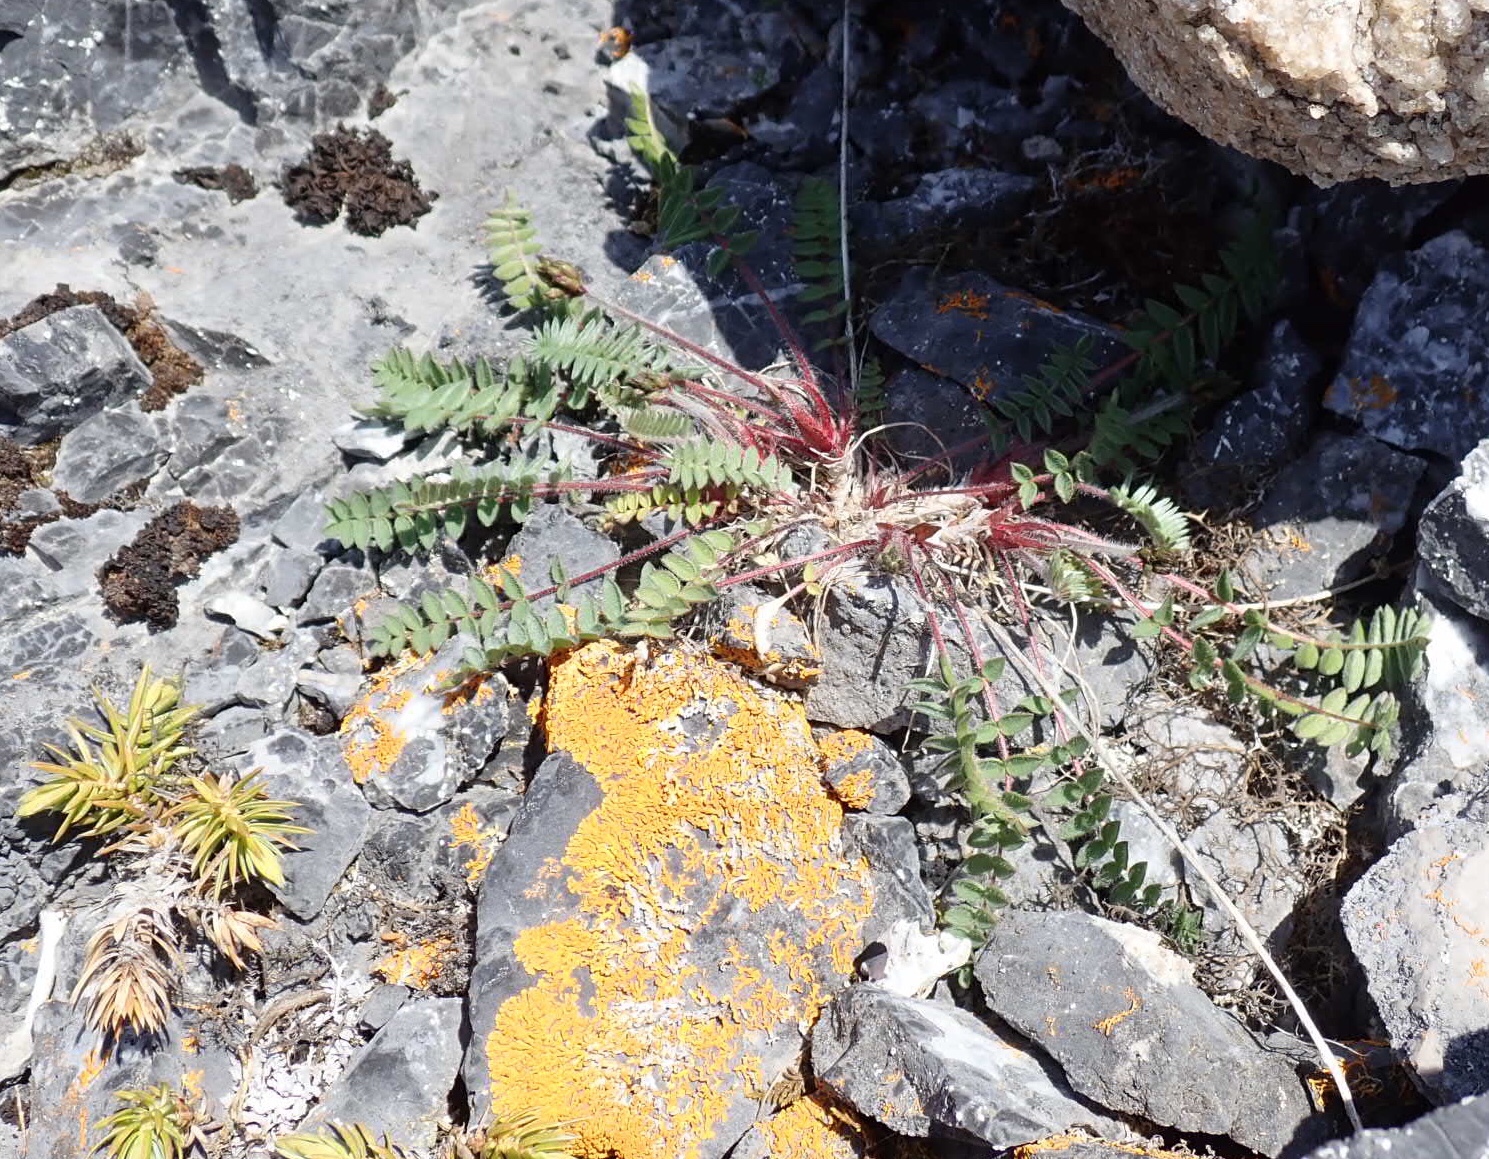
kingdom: Plantae
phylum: Tracheophyta
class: Magnoliopsida
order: Fabales
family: Fabaceae
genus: Oxytropis
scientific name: Oxytropis deflexa
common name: Stemmed oxytrope
